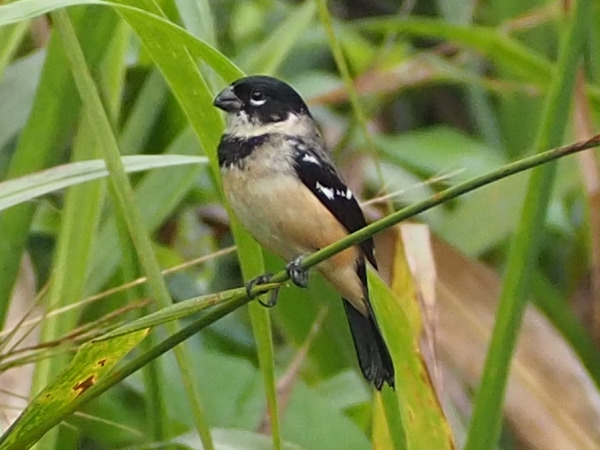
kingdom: Animalia
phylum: Chordata
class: Aves
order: Passeriformes
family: Thraupidae
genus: Sporophila
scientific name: Sporophila morelleti
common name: Morelet's seedeater
